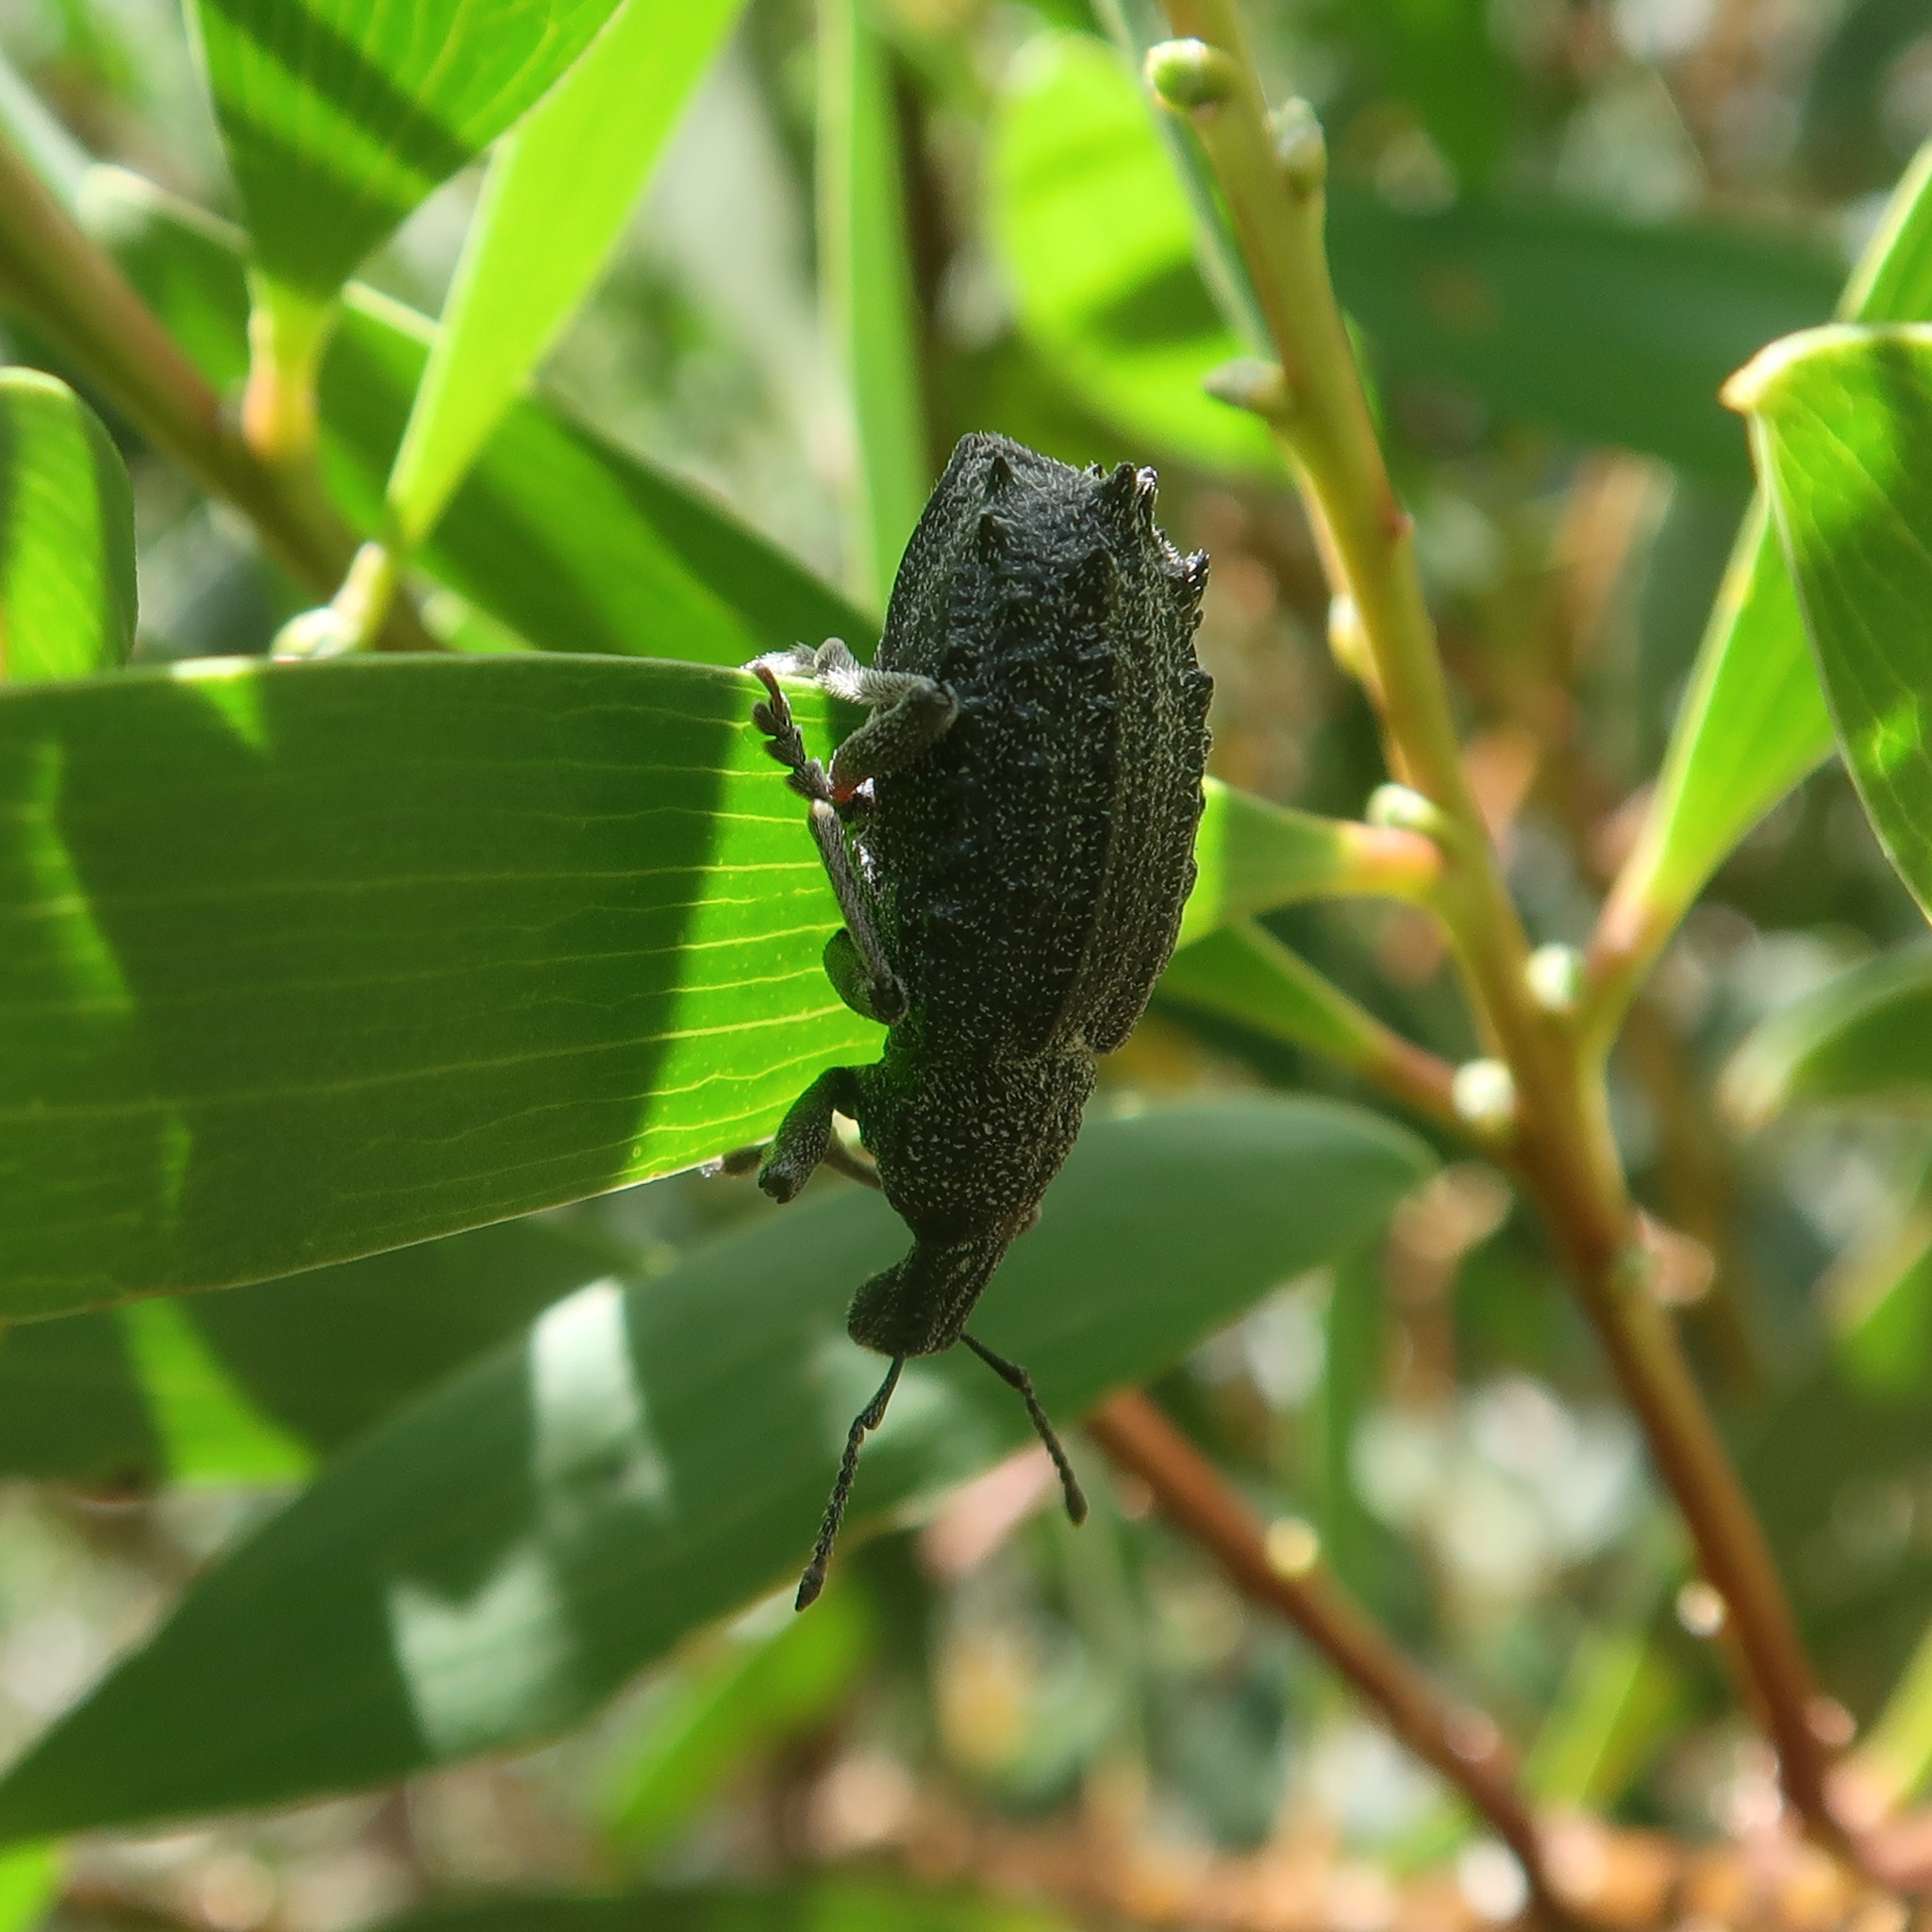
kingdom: Animalia
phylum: Arthropoda
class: Insecta
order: Coleoptera
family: Curculionidae
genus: Leptopius
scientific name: Leptopius duponti
